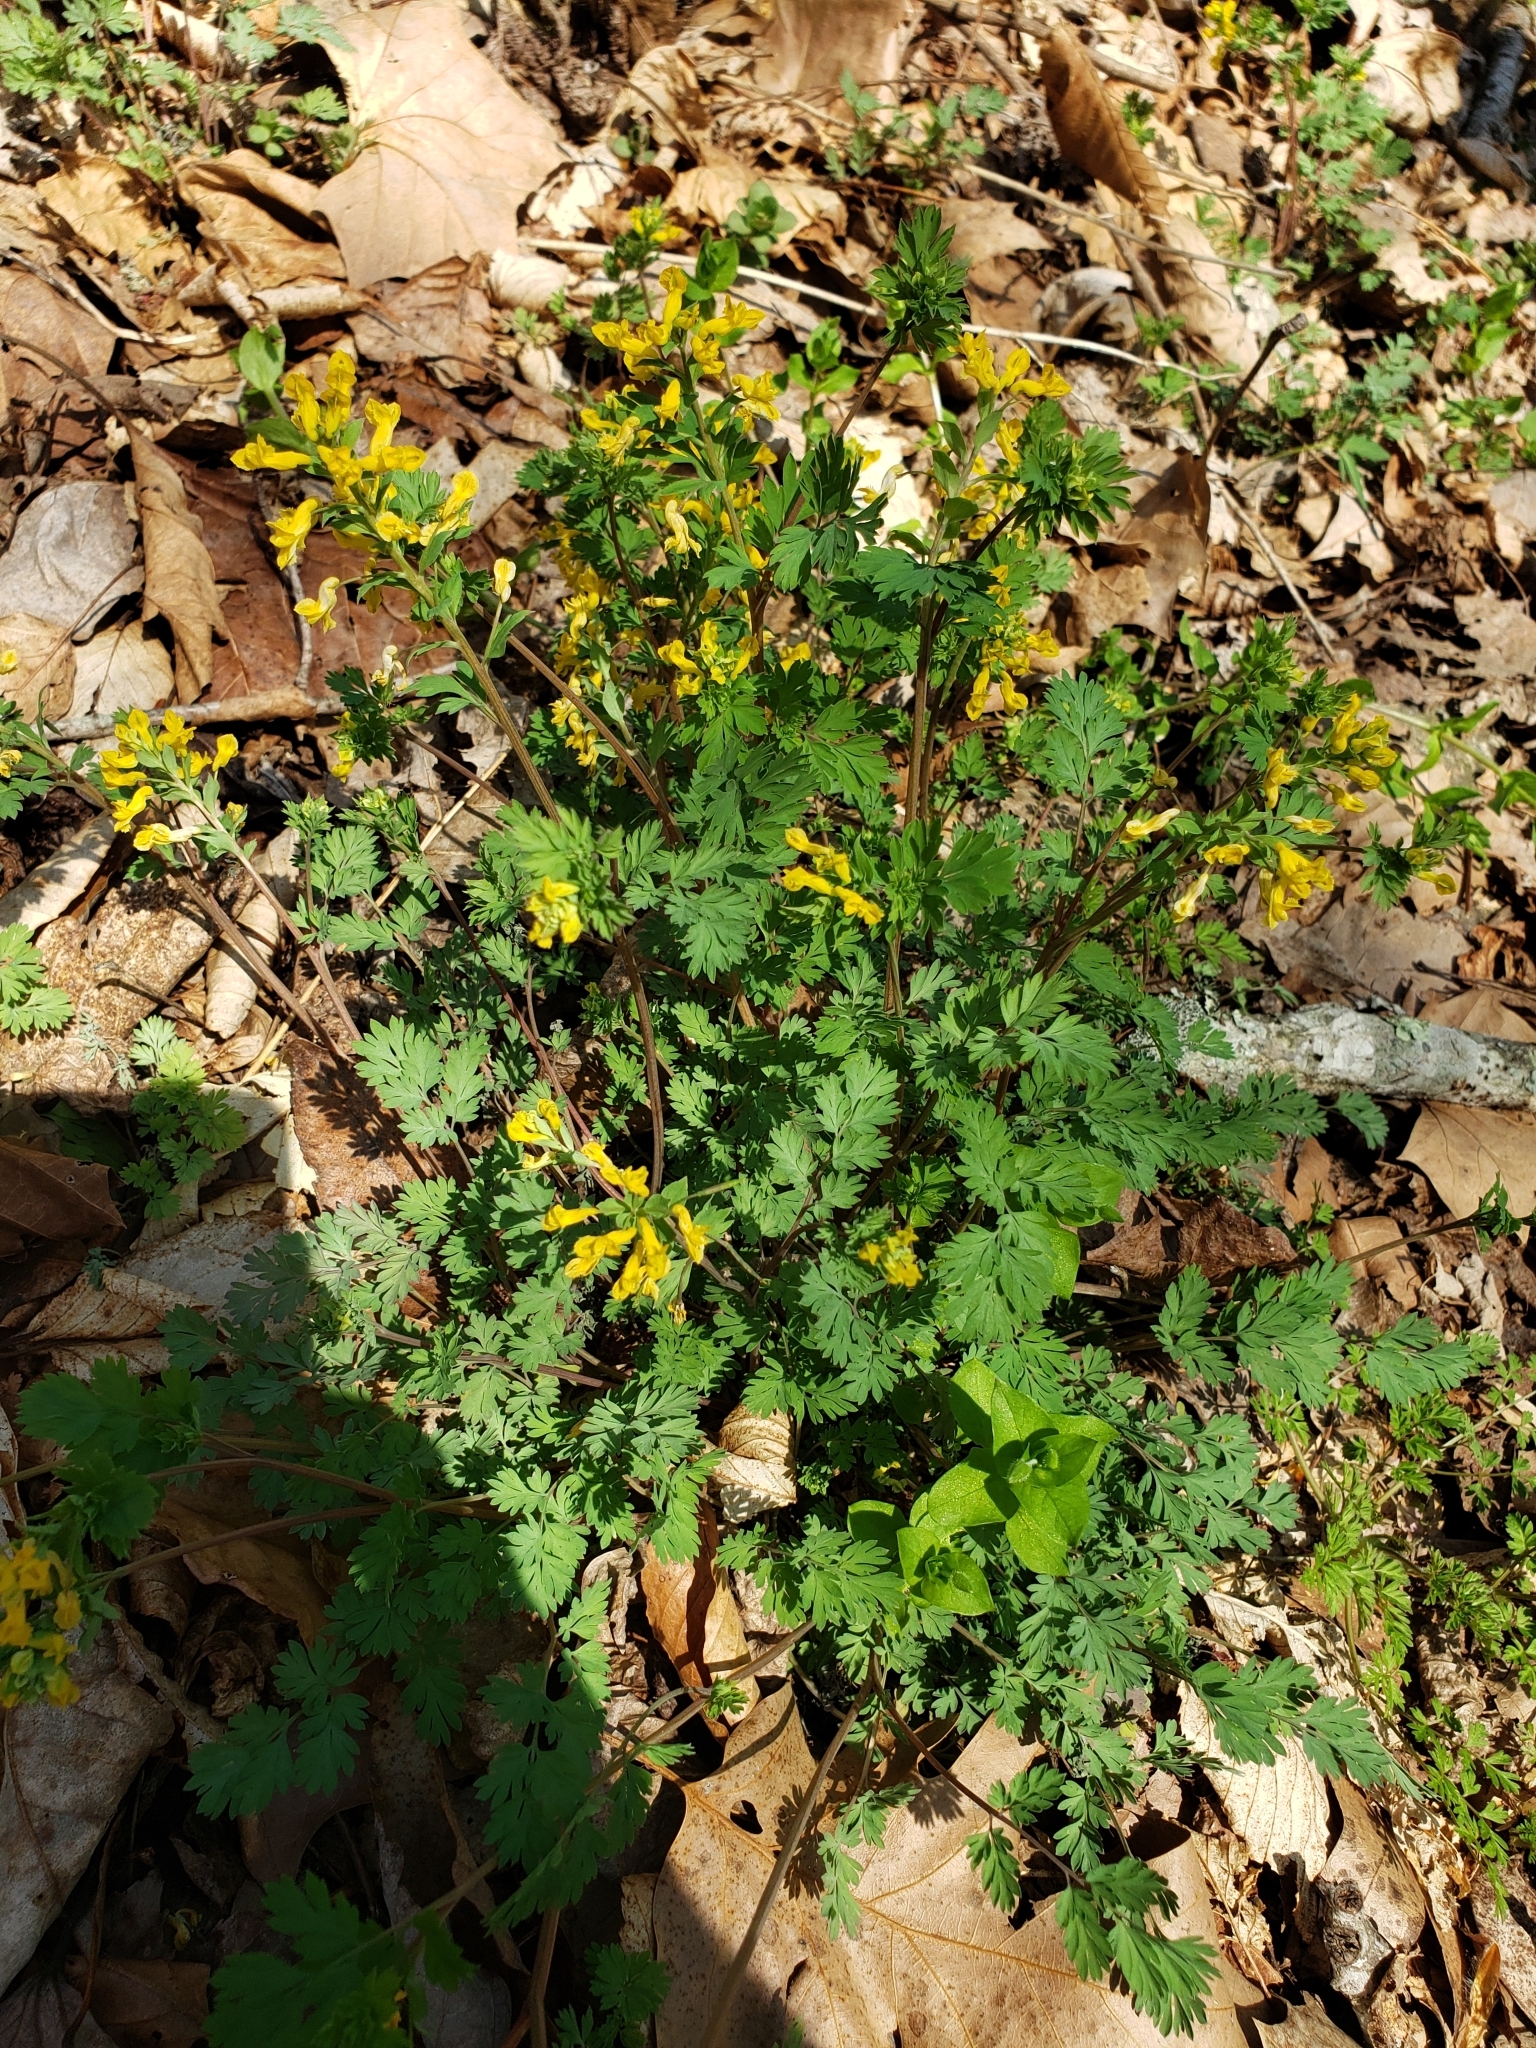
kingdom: Plantae
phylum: Tracheophyta
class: Magnoliopsida
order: Ranunculales
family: Papaveraceae
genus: Corydalis
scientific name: Corydalis flavula
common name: Yellow corydalis
